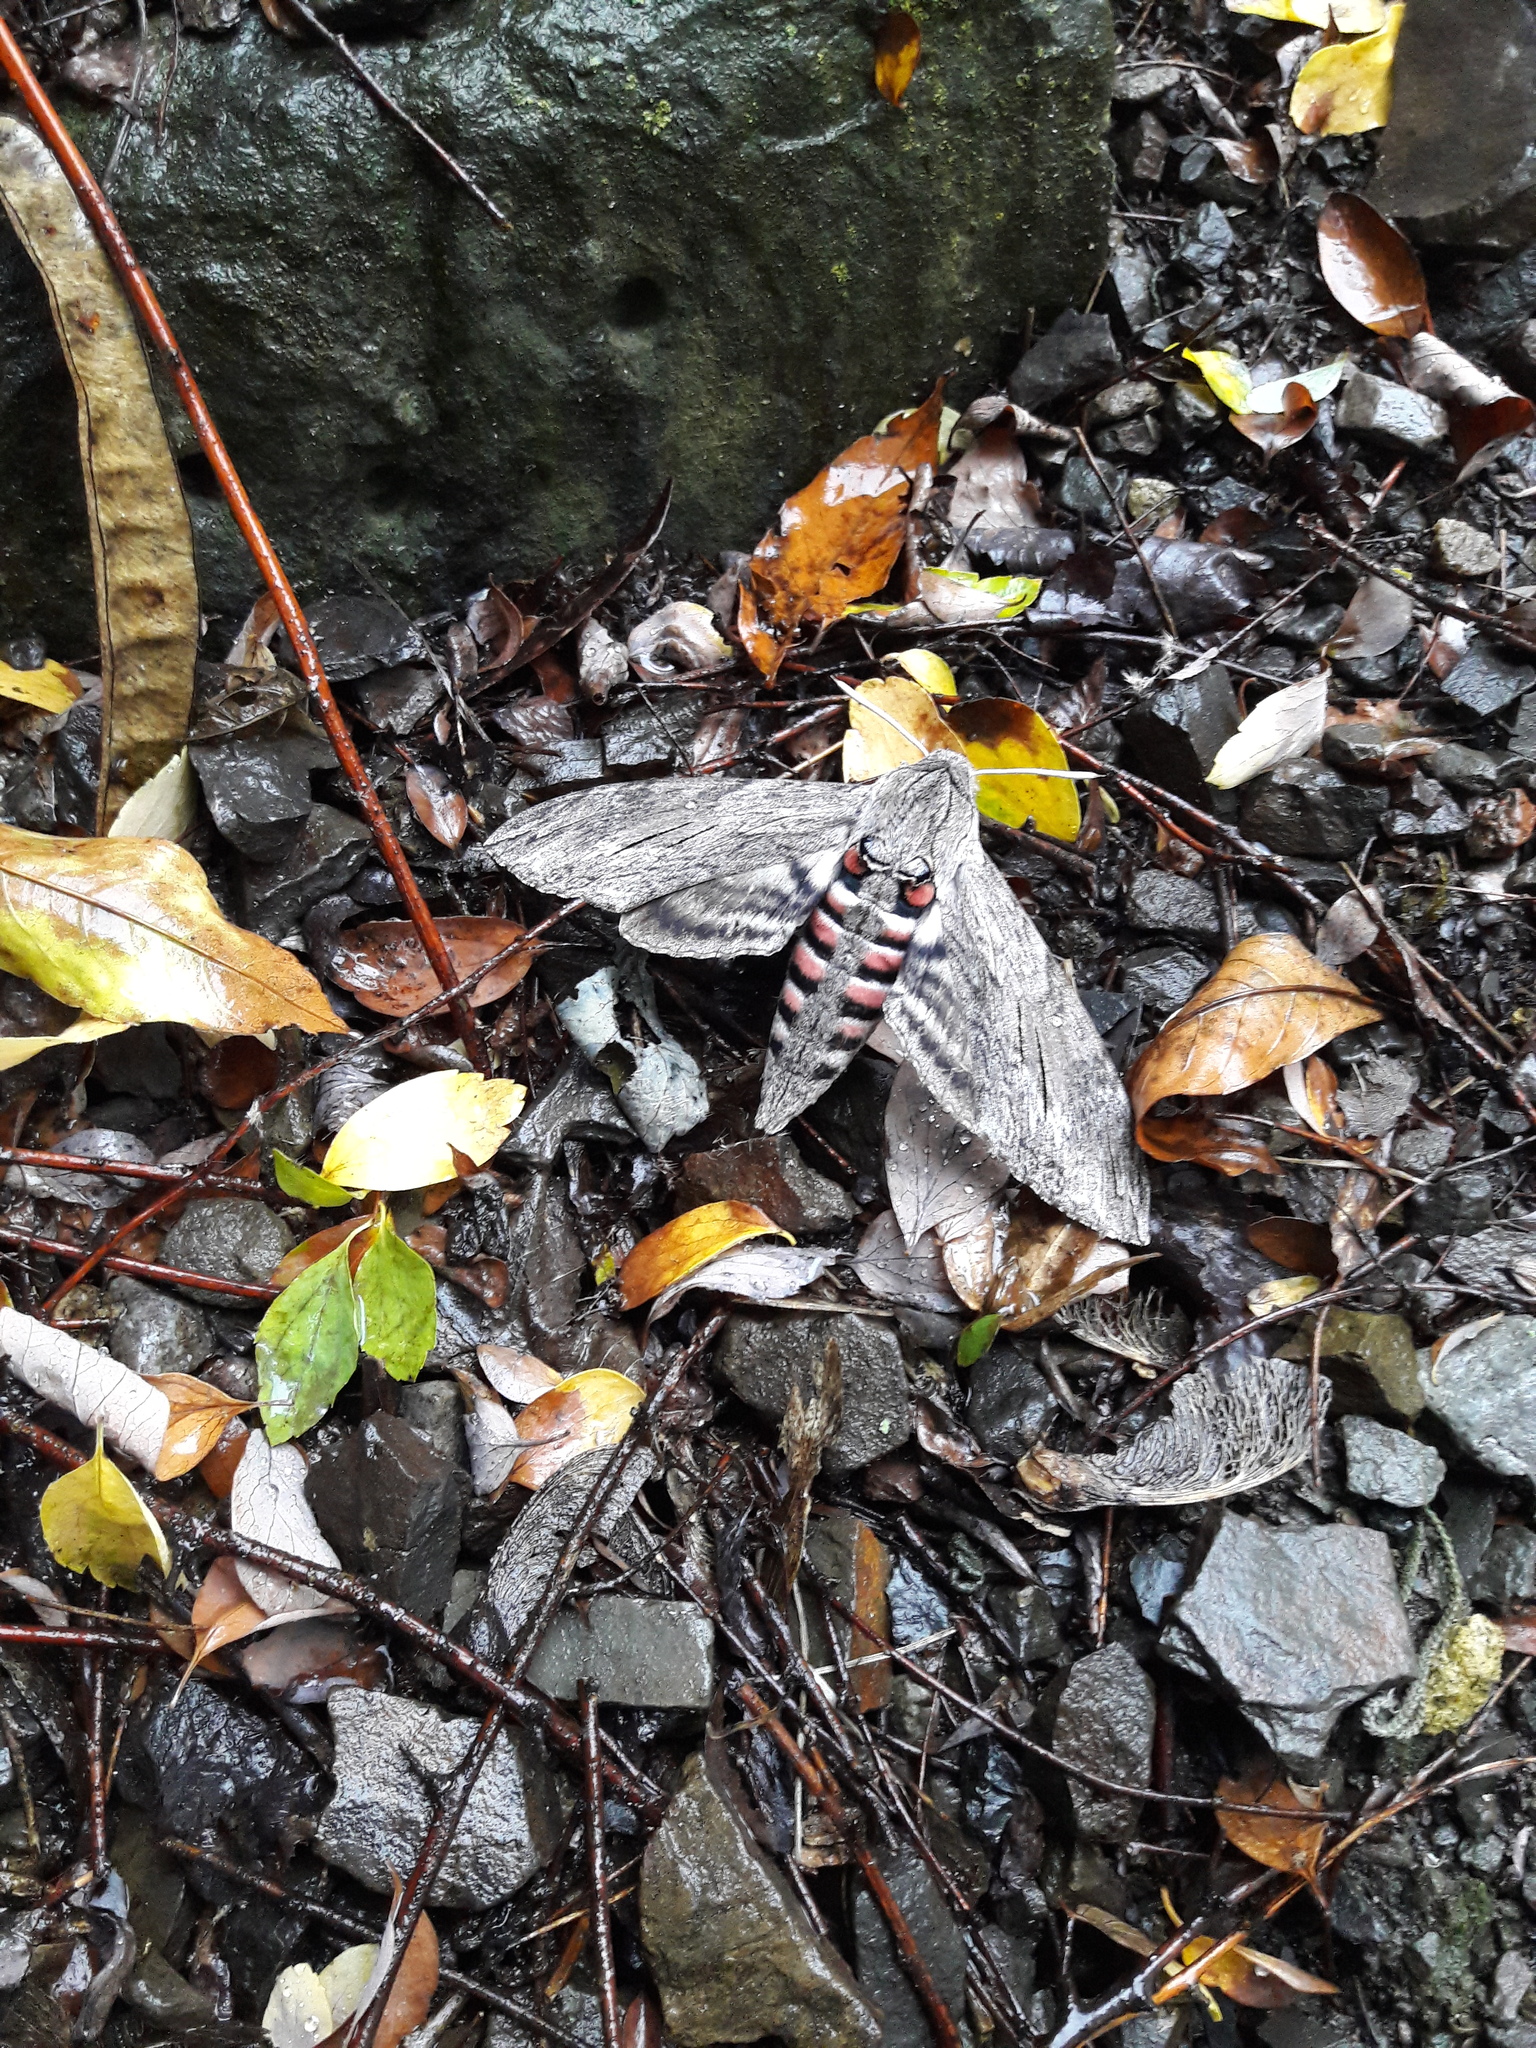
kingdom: Animalia
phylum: Arthropoda
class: Insecta
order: Lepidoptera
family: Sphingidae
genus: Agrius
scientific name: Agrius convolvuli
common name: Convolvulus hawkmoth
